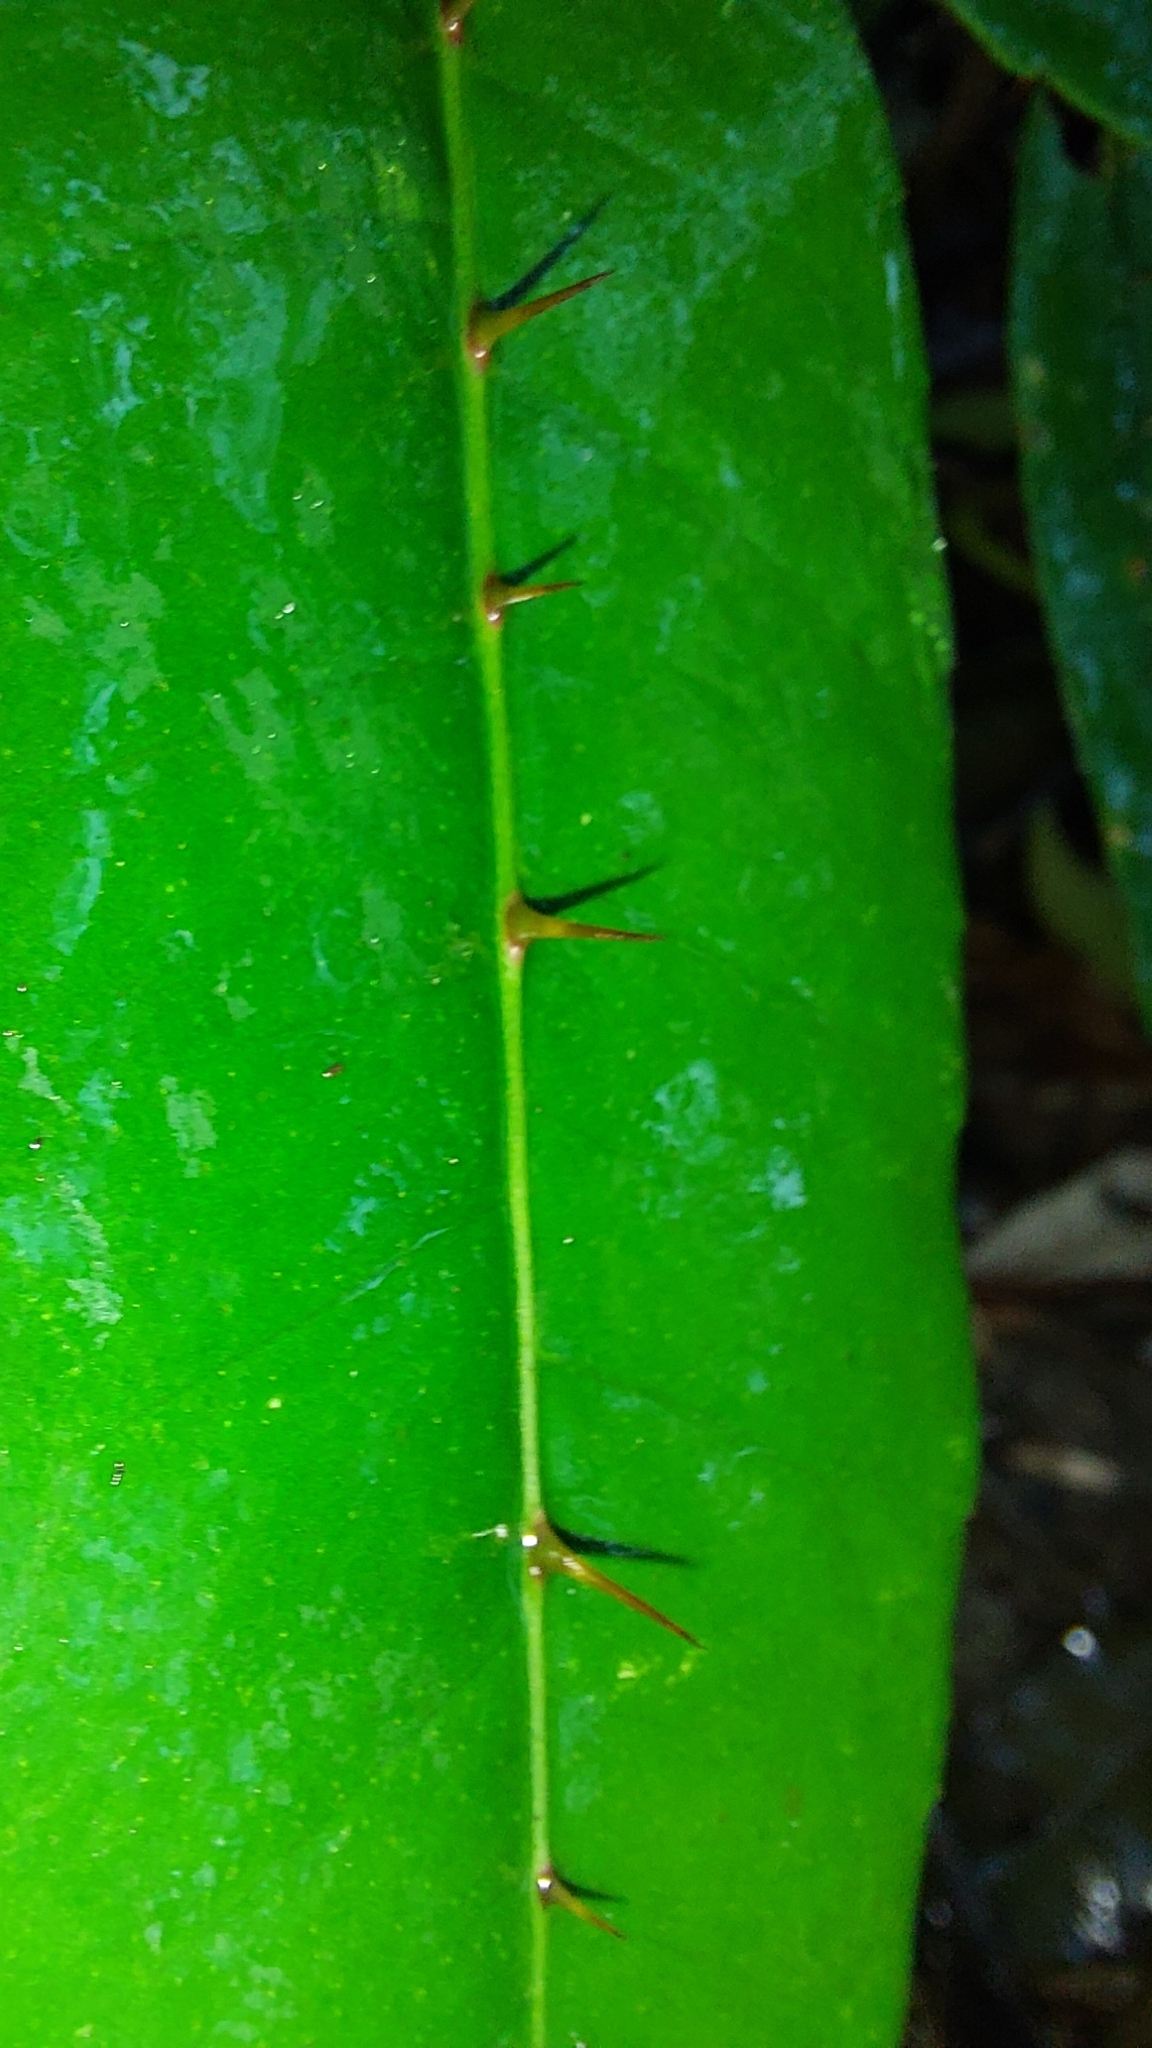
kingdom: Plantae
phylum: Tracheophyta
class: Magnoliopsida
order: Sapindales
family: Rutaceae
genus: Zanthoxylum
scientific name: Zanthoxylum nitidum
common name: Shiny-leaf prickly-ash
